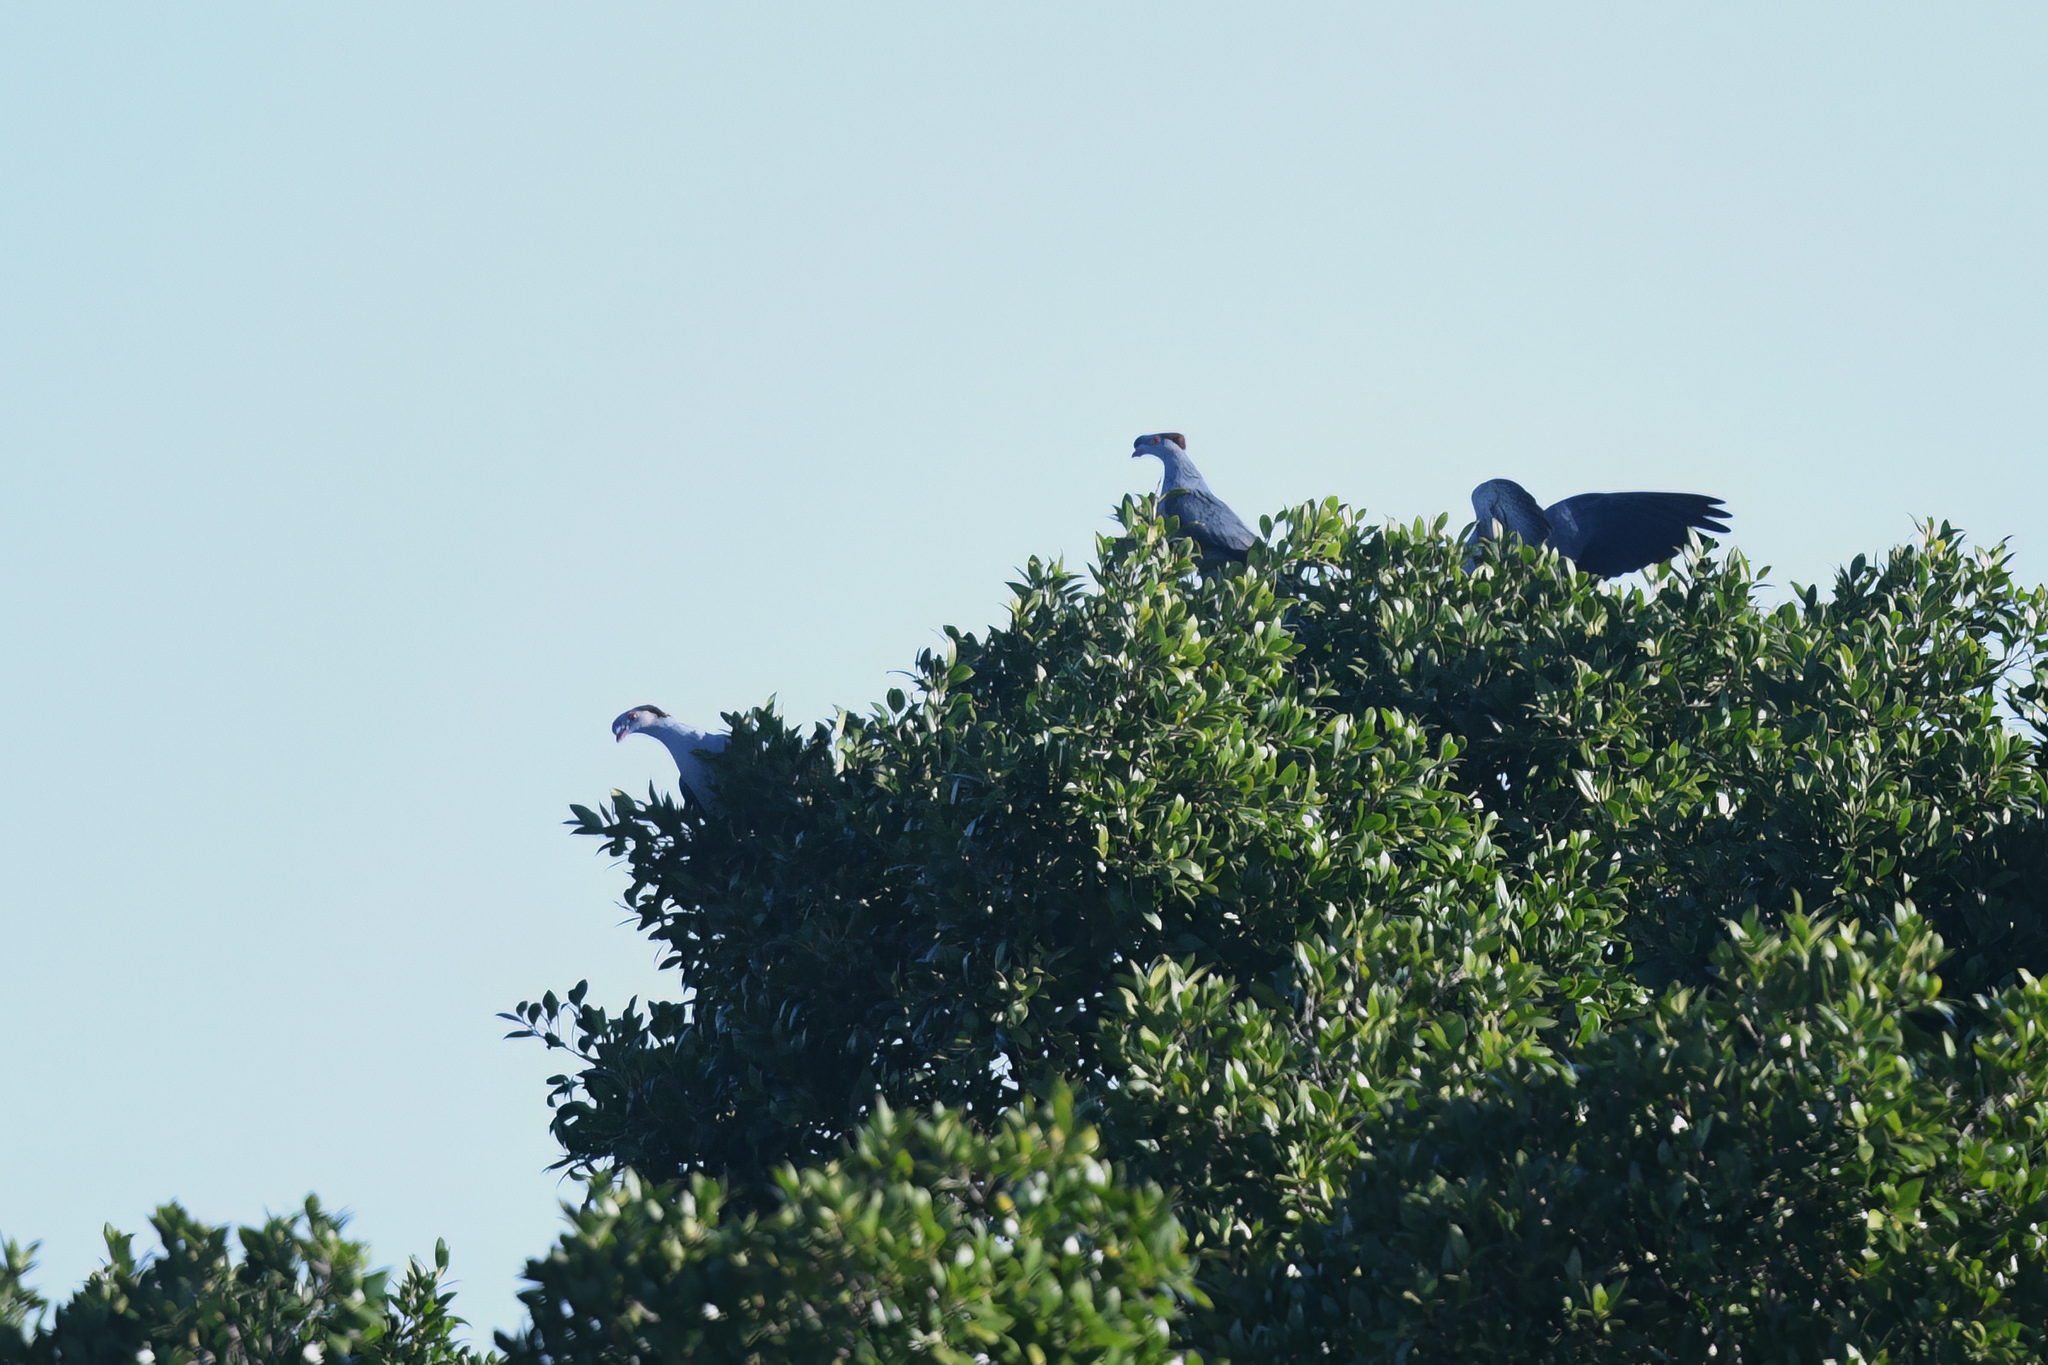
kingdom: Animalia
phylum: Chordata
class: Aves
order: Columbiformes
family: Columbidae
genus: Lopholaimus
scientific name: Lopholaimus antarcticus
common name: Topknot pigeon
